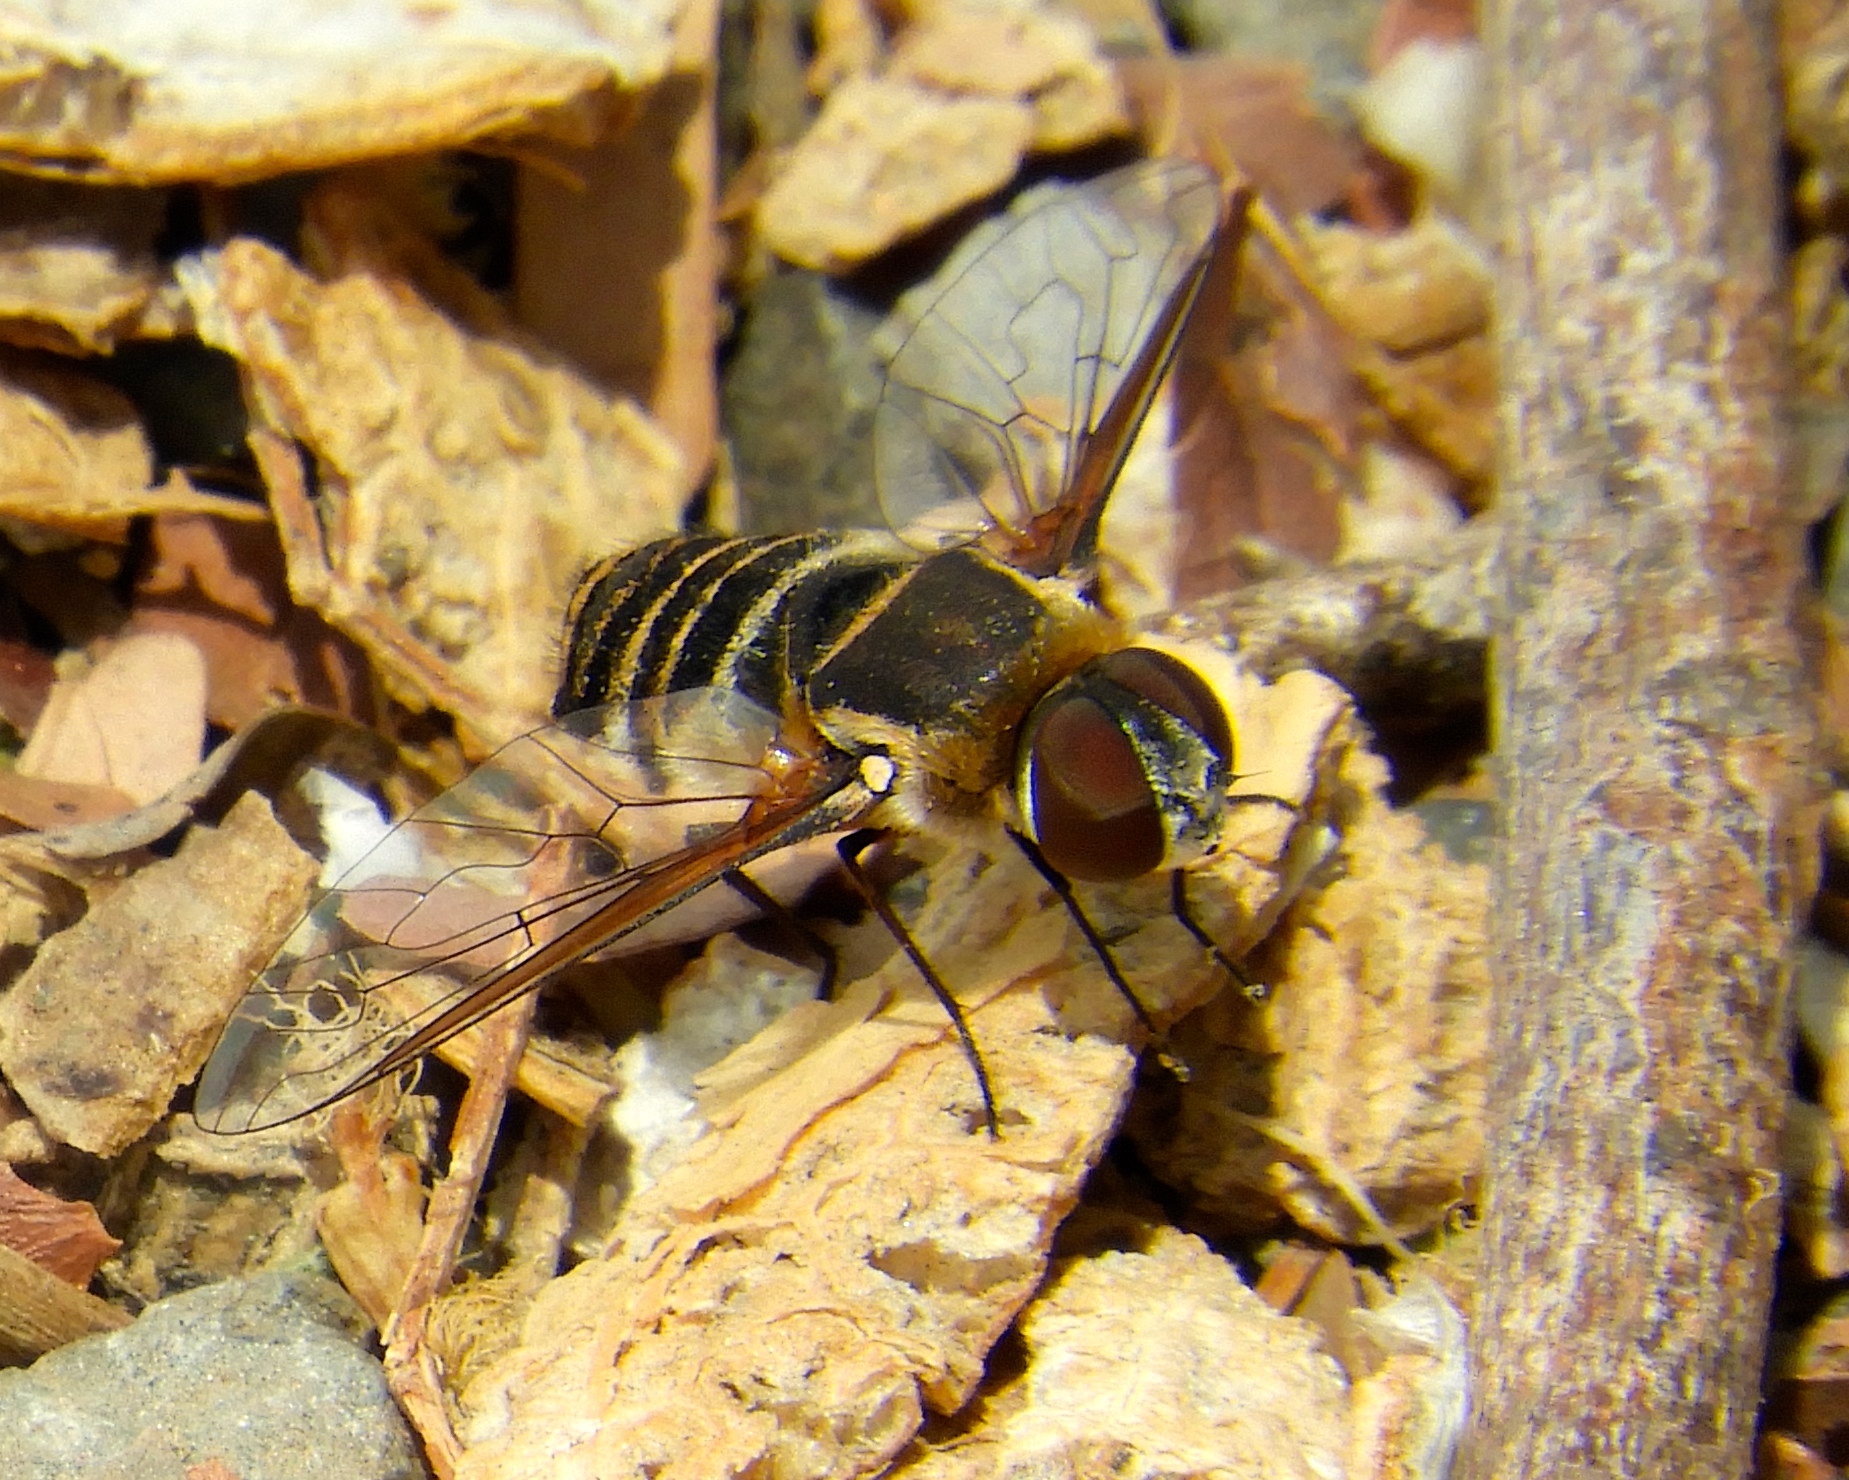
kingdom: Animalia
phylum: Arthropoda
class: Insecta
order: Diptera
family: Bombyliidae
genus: Villa
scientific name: Villa
